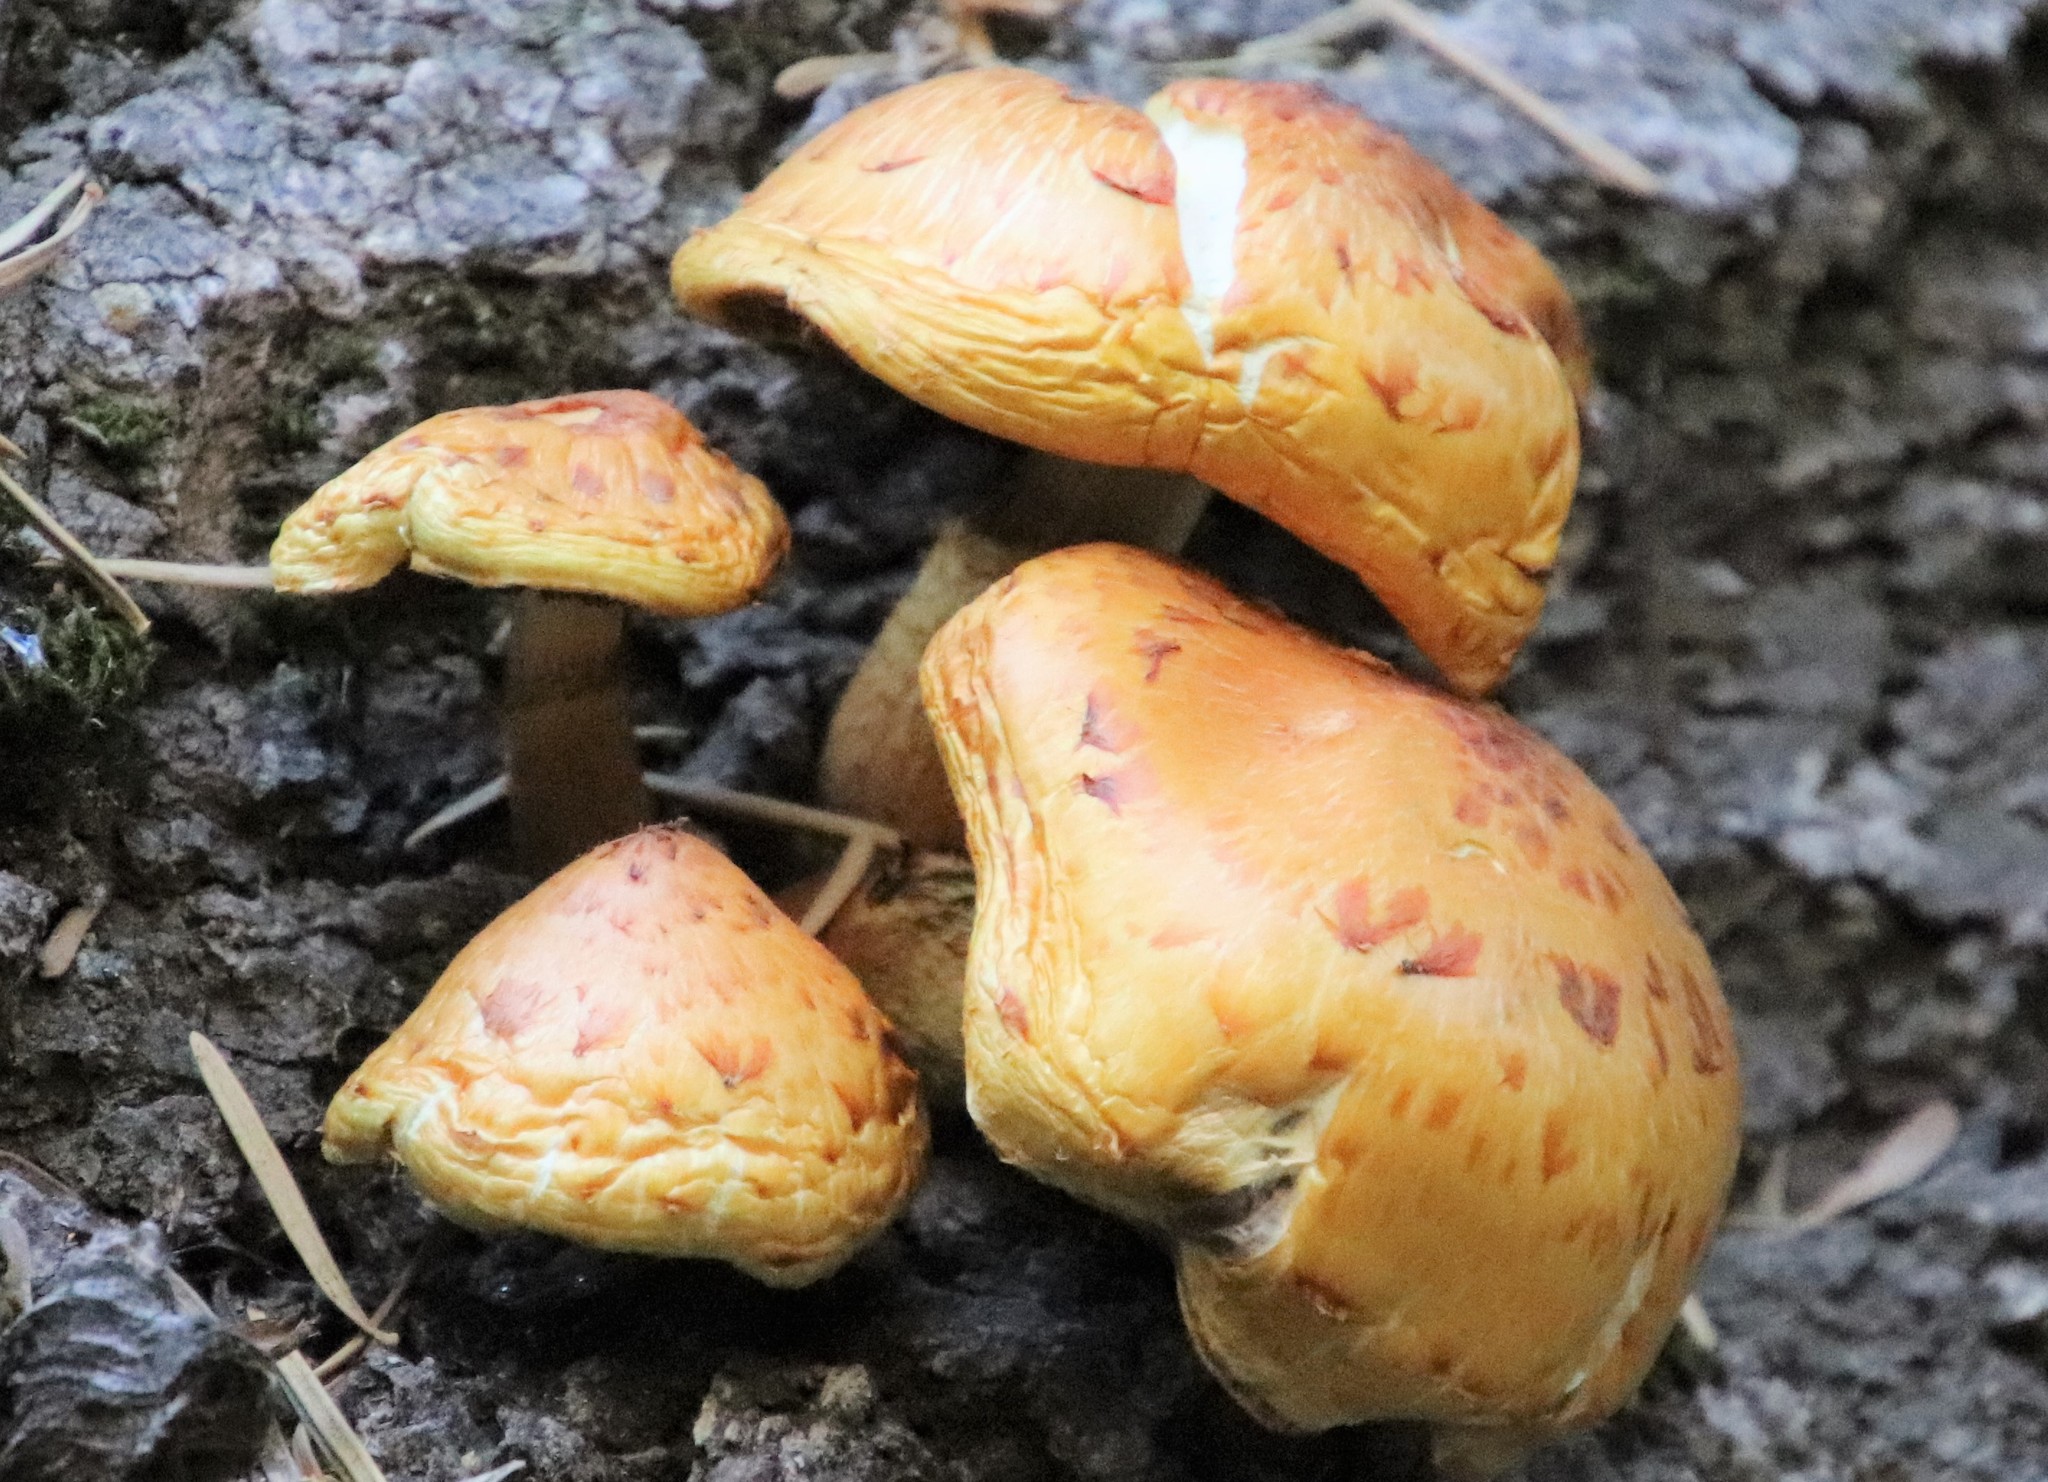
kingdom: Fungi
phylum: Basidiomycota
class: Agaricomycetes
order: Agaricales
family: Strophariaceae
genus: Pholiota
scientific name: Pholiota aurivella
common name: Golden scalycap
